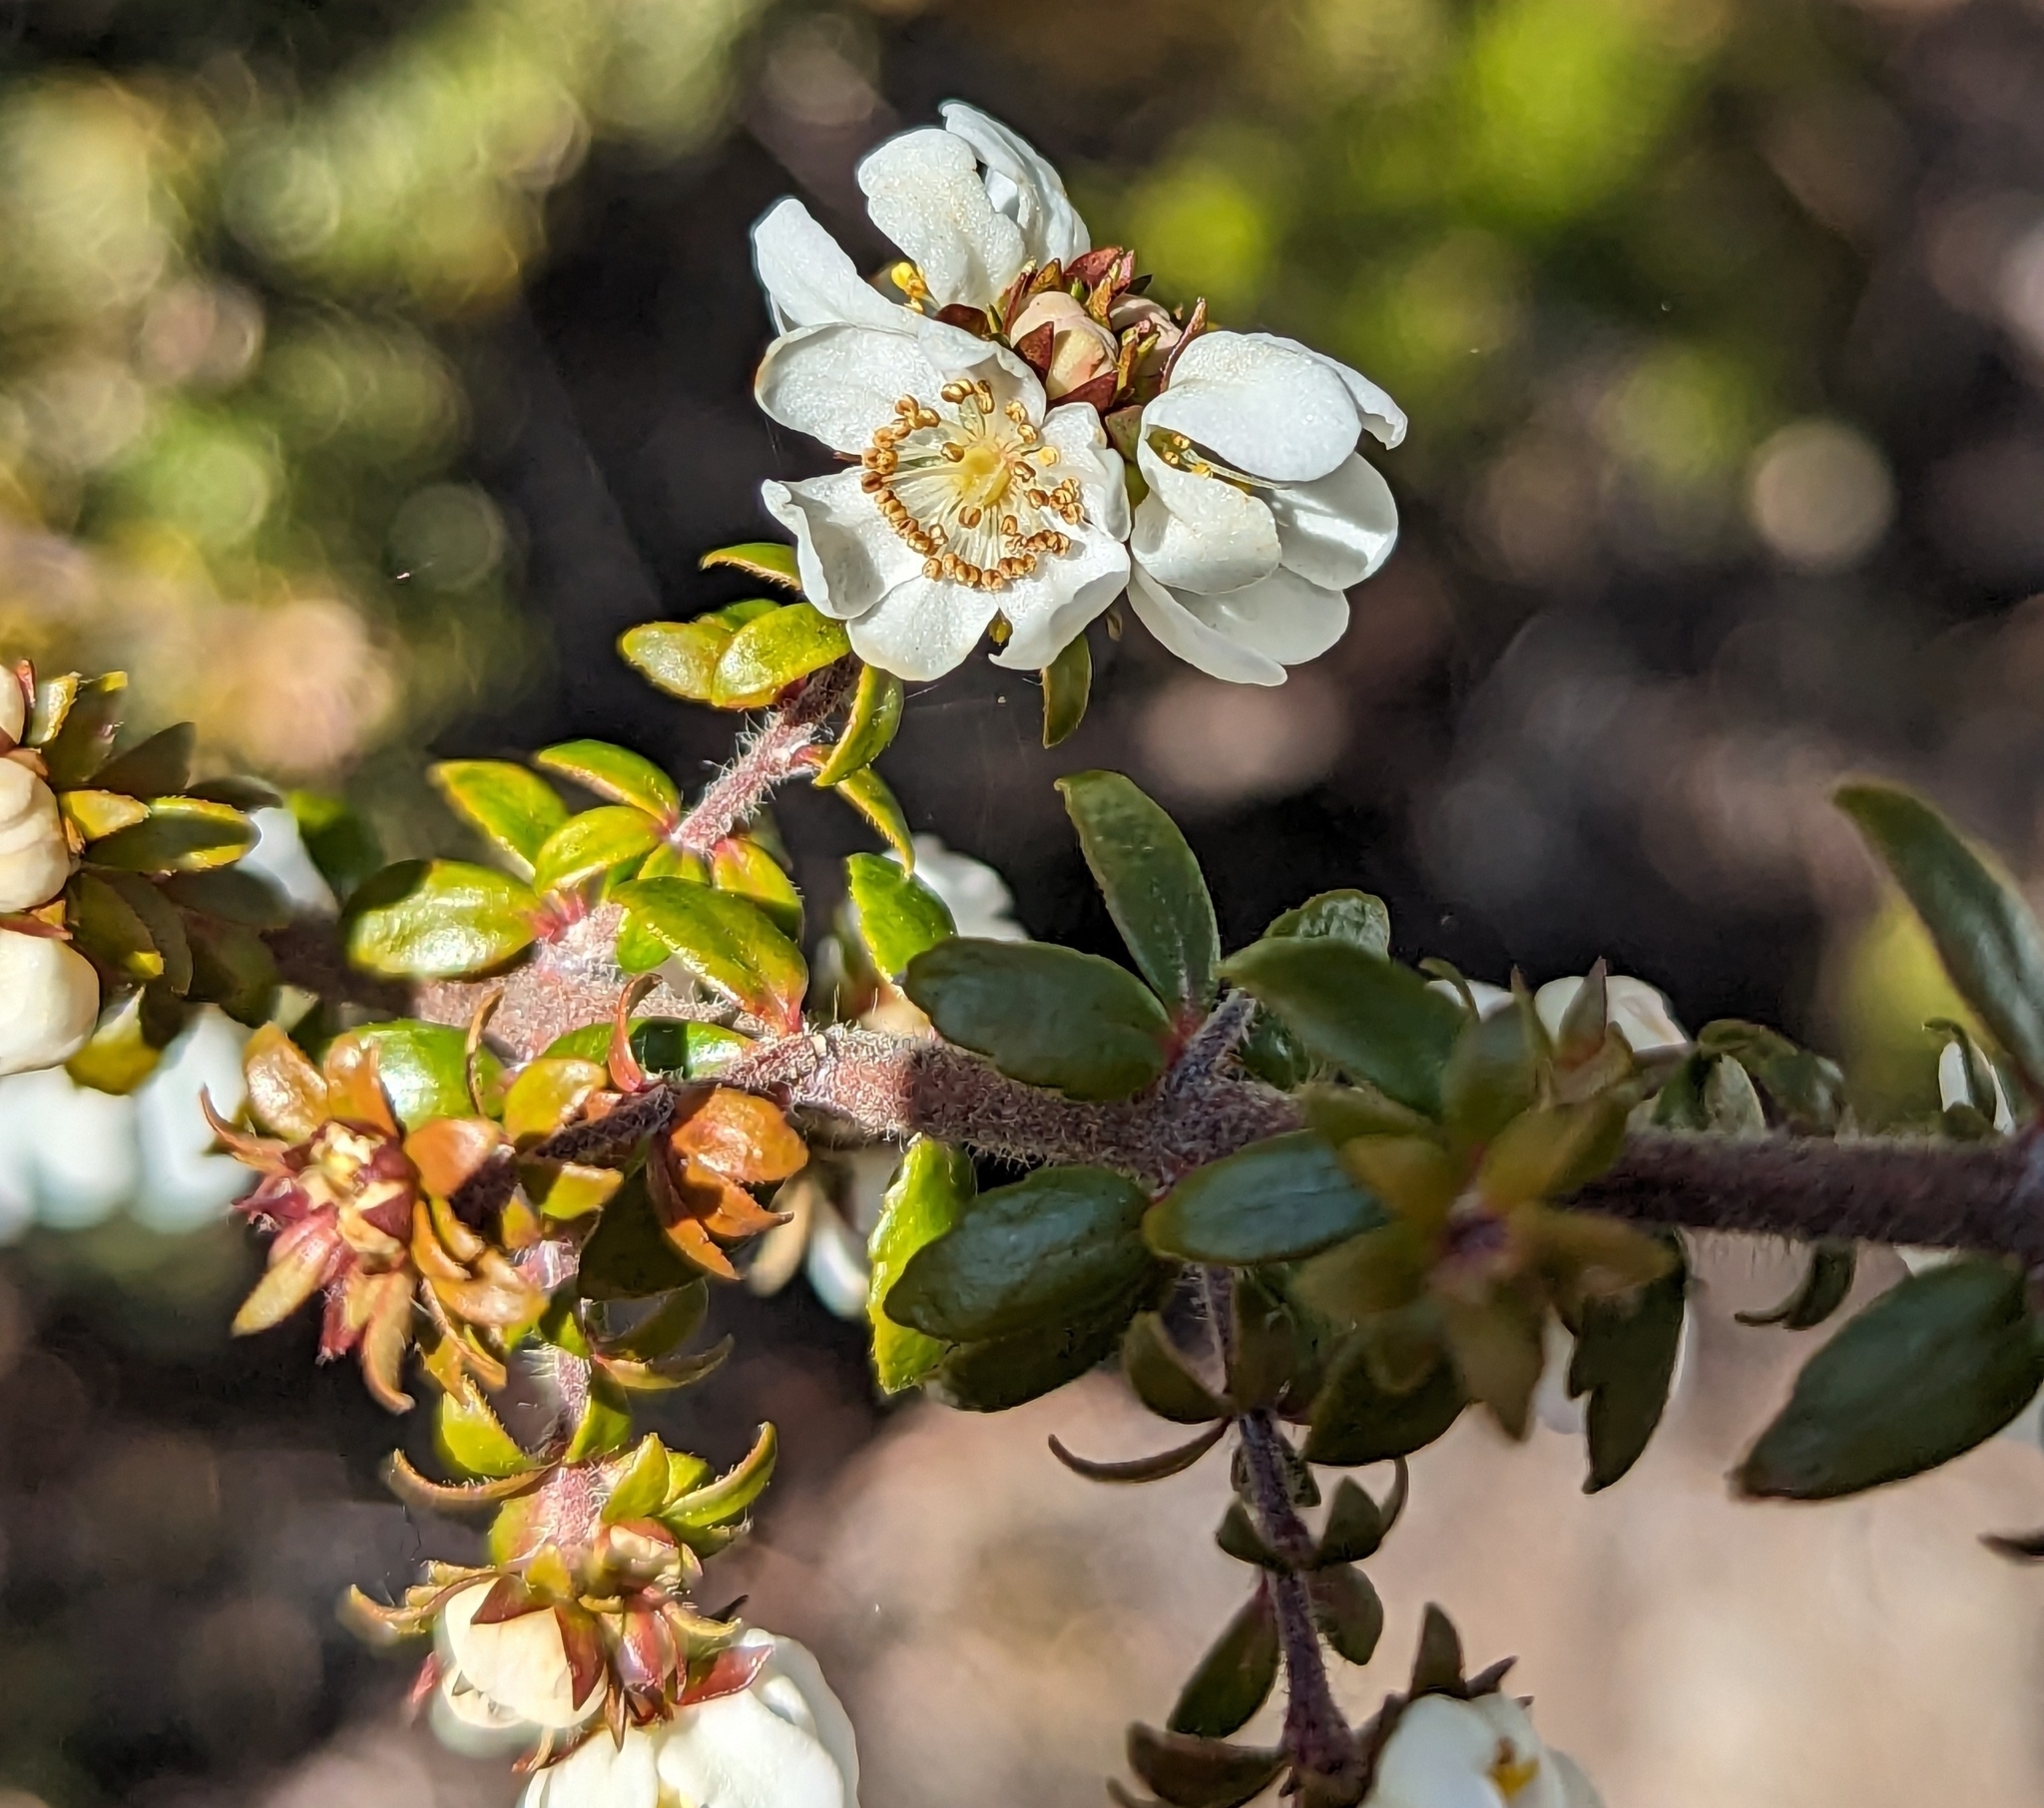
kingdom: Plantae
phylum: Tracheophyta
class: Magnoliopsida
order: Oxalidales
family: Cunoniaceae
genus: Bauera
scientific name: Bauera rubioides
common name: River-rose
